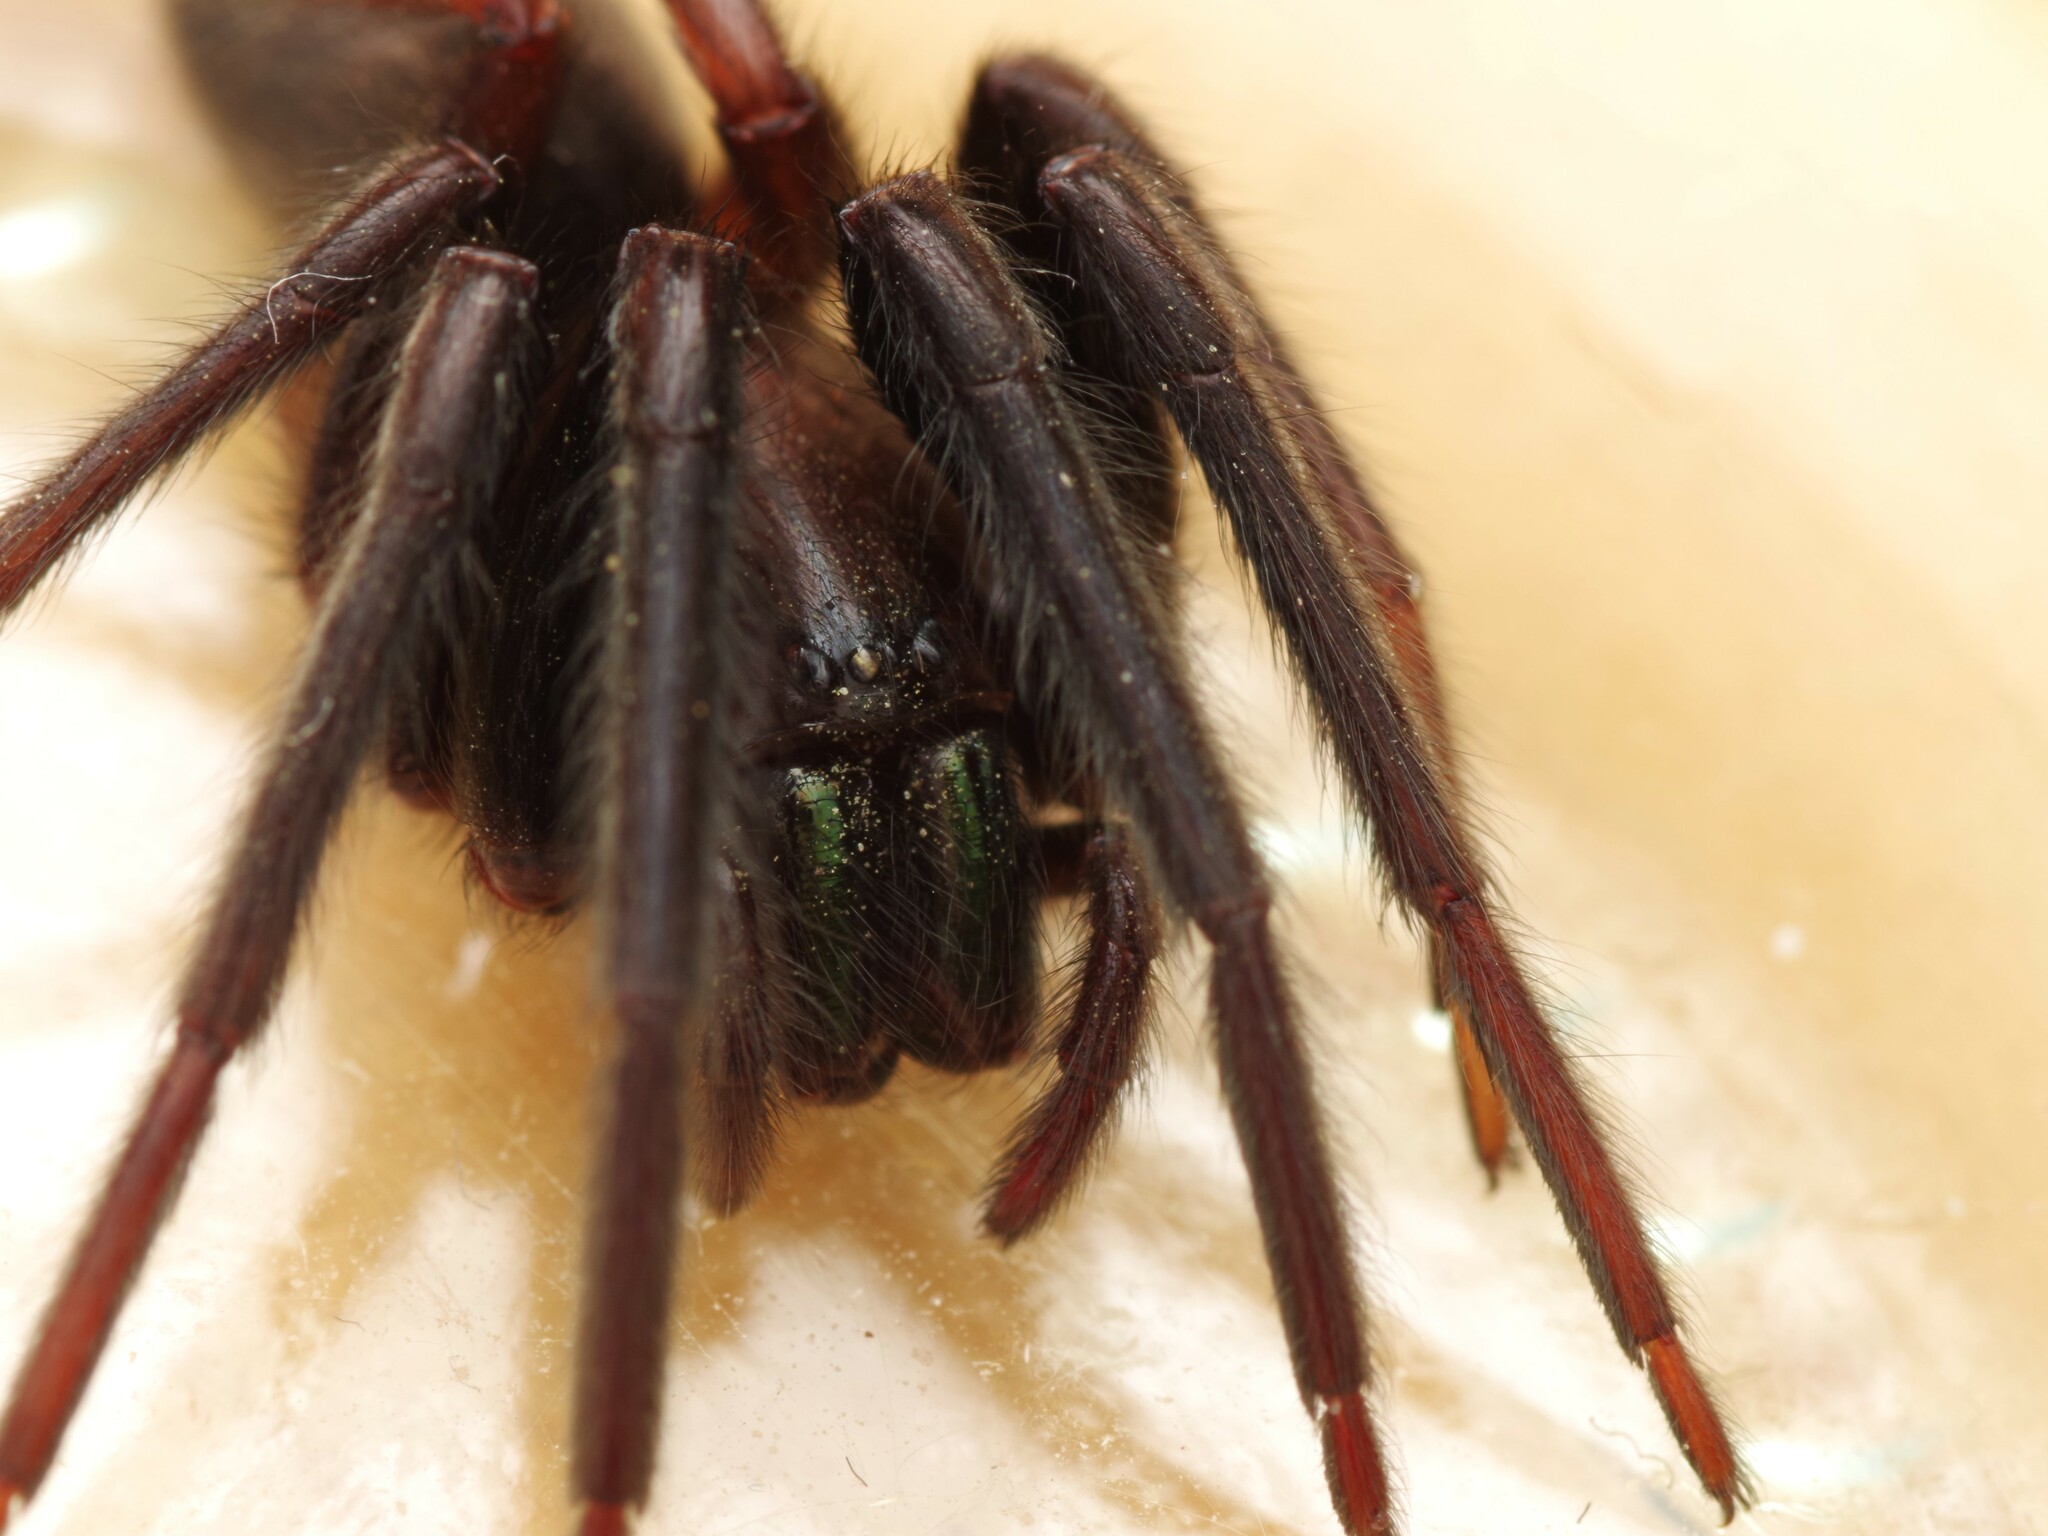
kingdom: Animalia
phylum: Arthropoda
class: Arachnida
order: Araneae
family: Segestriidae
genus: Segestria
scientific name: Segestria florentina
